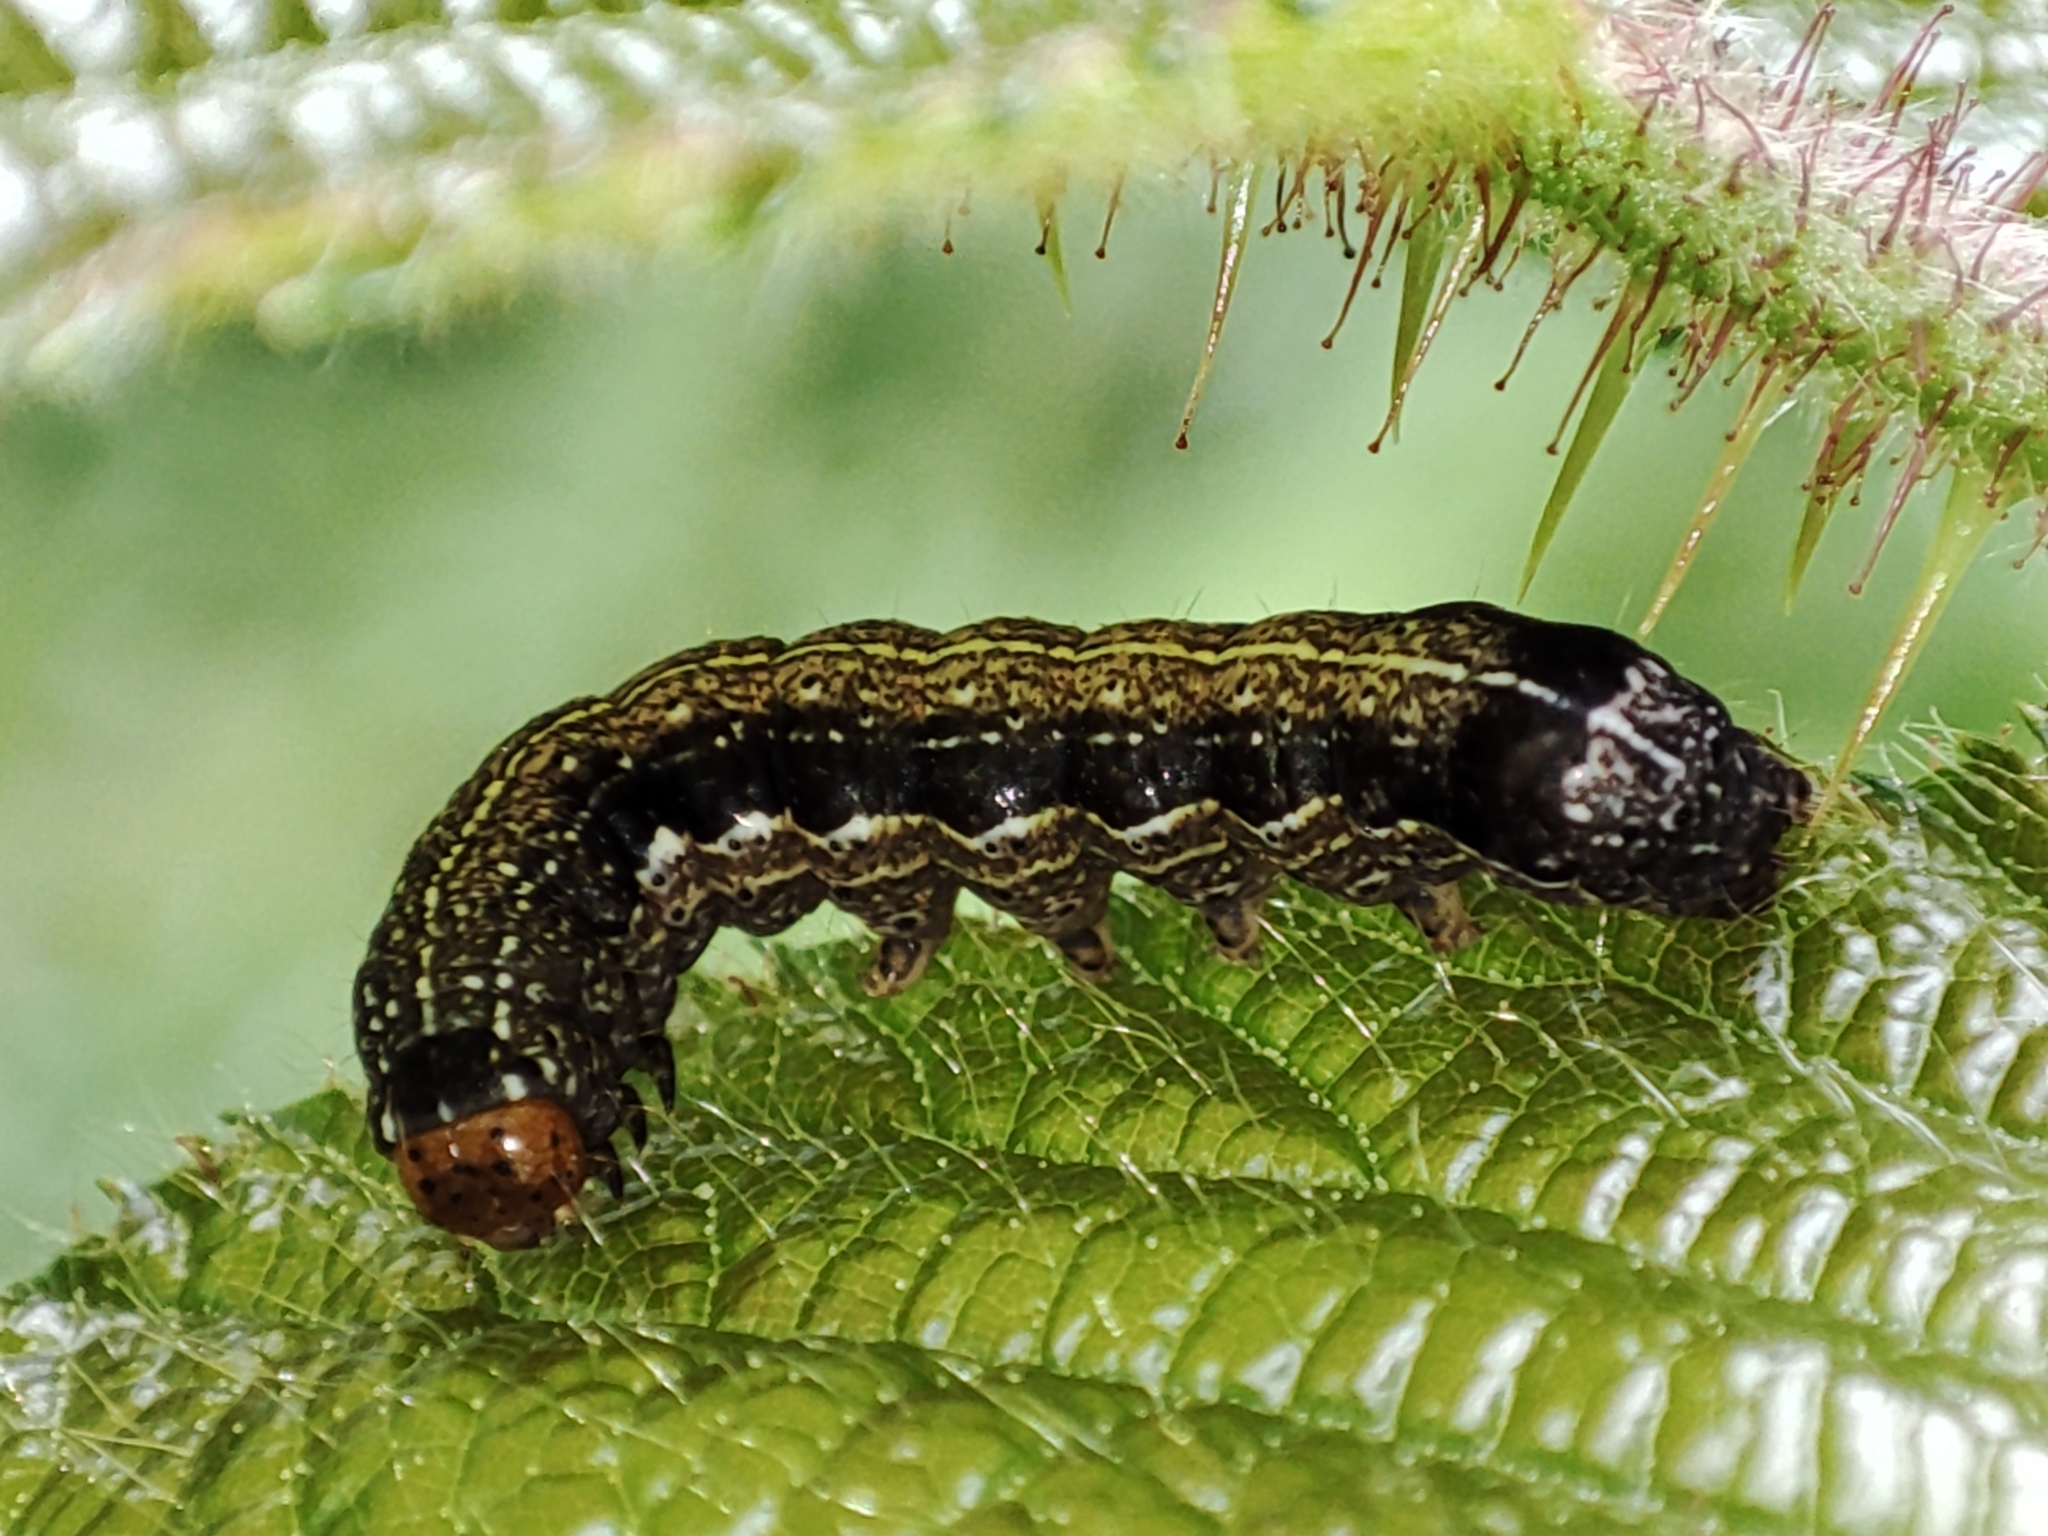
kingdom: Animalia
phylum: Arthropoda
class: Insecta
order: Lepidoptera
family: Noctuidae
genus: Anorthoa
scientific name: Anorthoa munda
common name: Twin-spotted quaker
